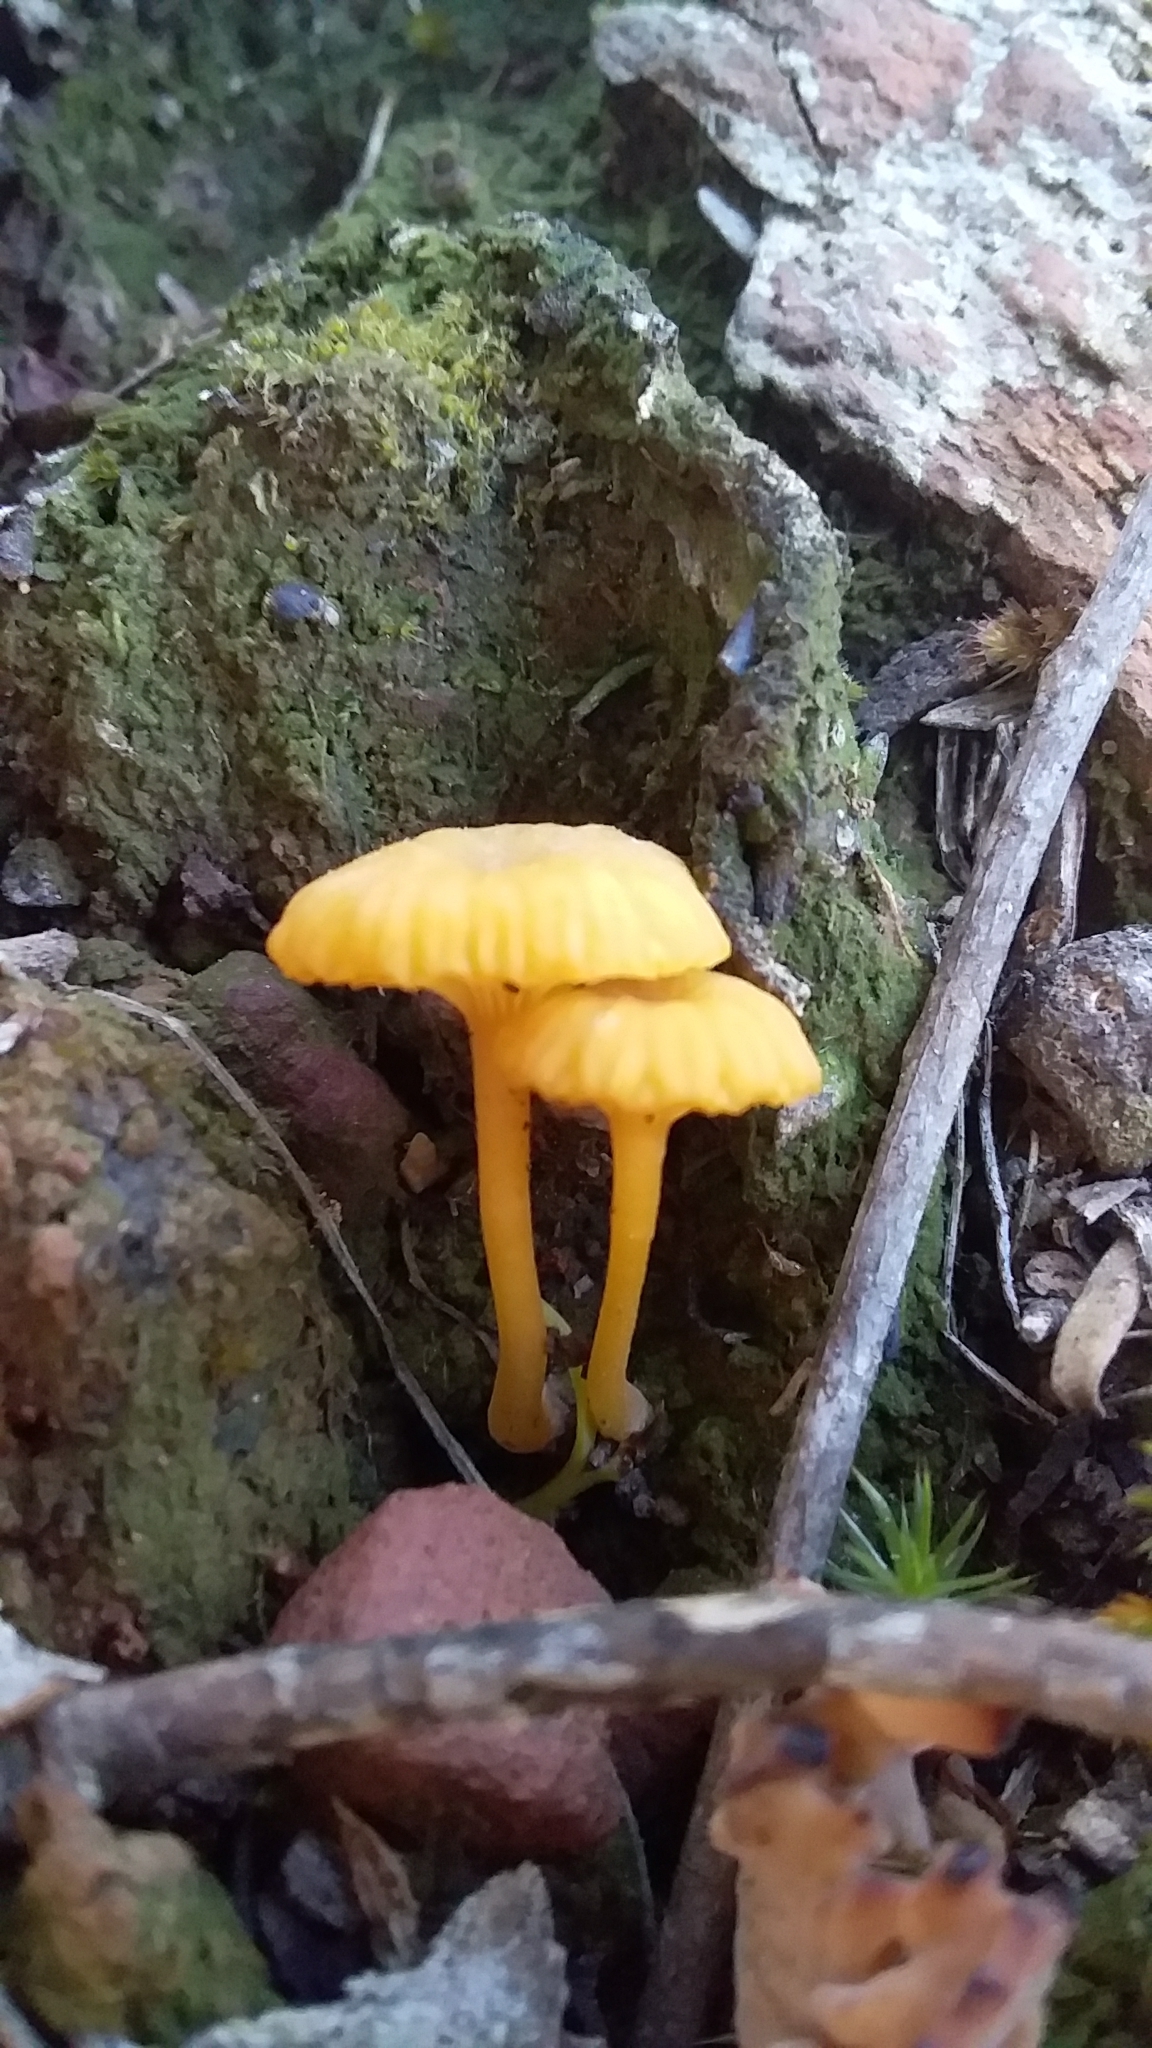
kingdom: Fungi
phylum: Basidiomycota
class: Agaricomycetes
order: Agaricales
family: Hygrophoraceae
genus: Lichenomphalia
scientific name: Lichenomphalia chromacea
